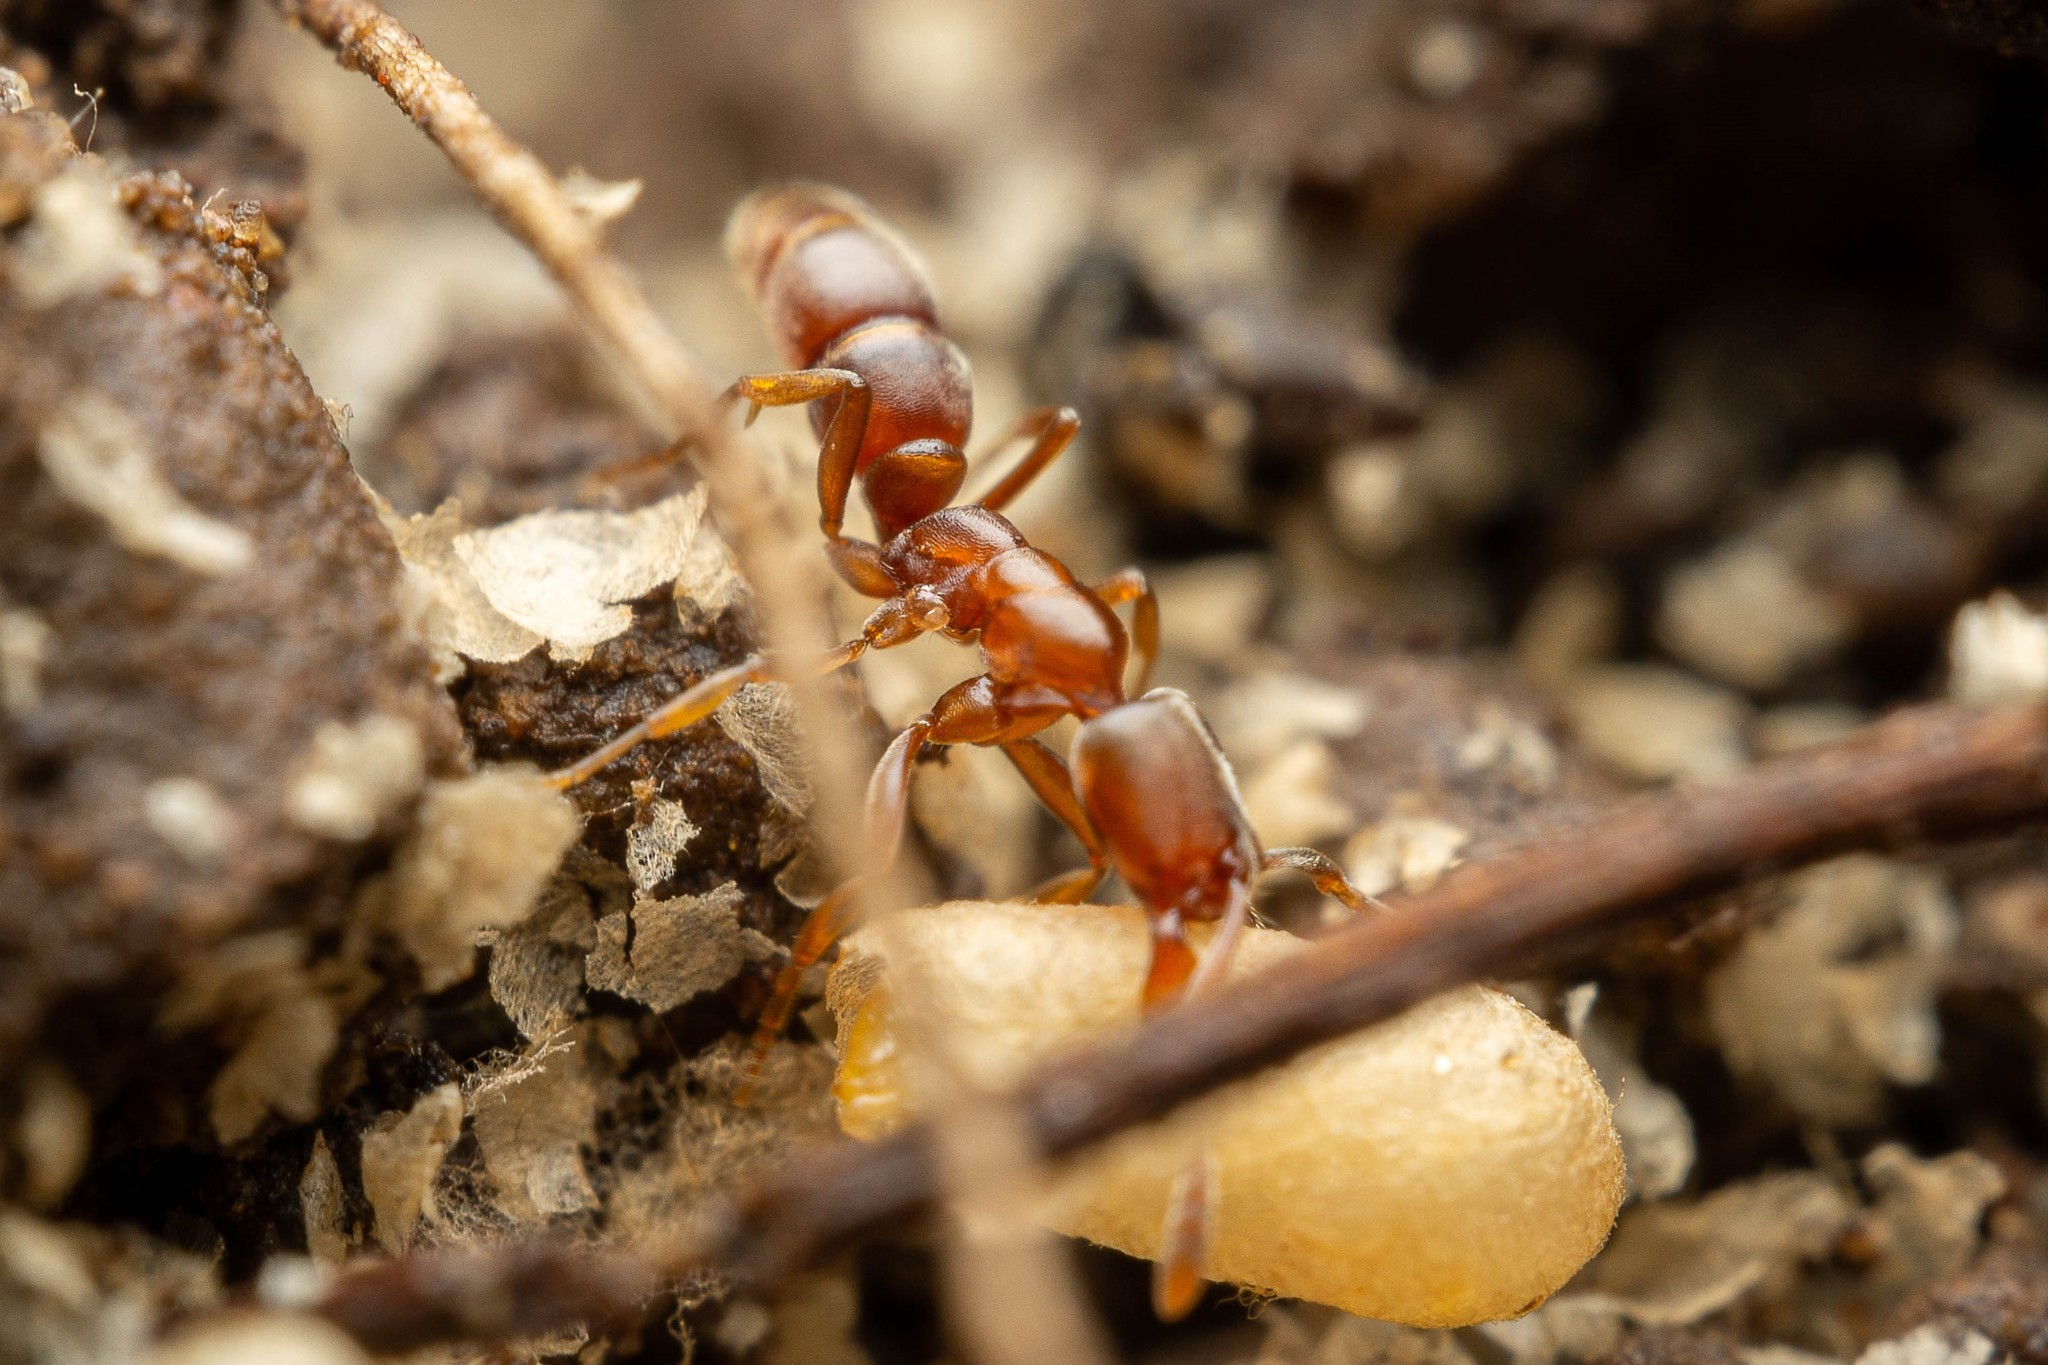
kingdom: Animalia
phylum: Arthropoda
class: Insecta
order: Hymenoptera
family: Formicidae
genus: Hypoponera
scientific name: Hypoponera opacior
